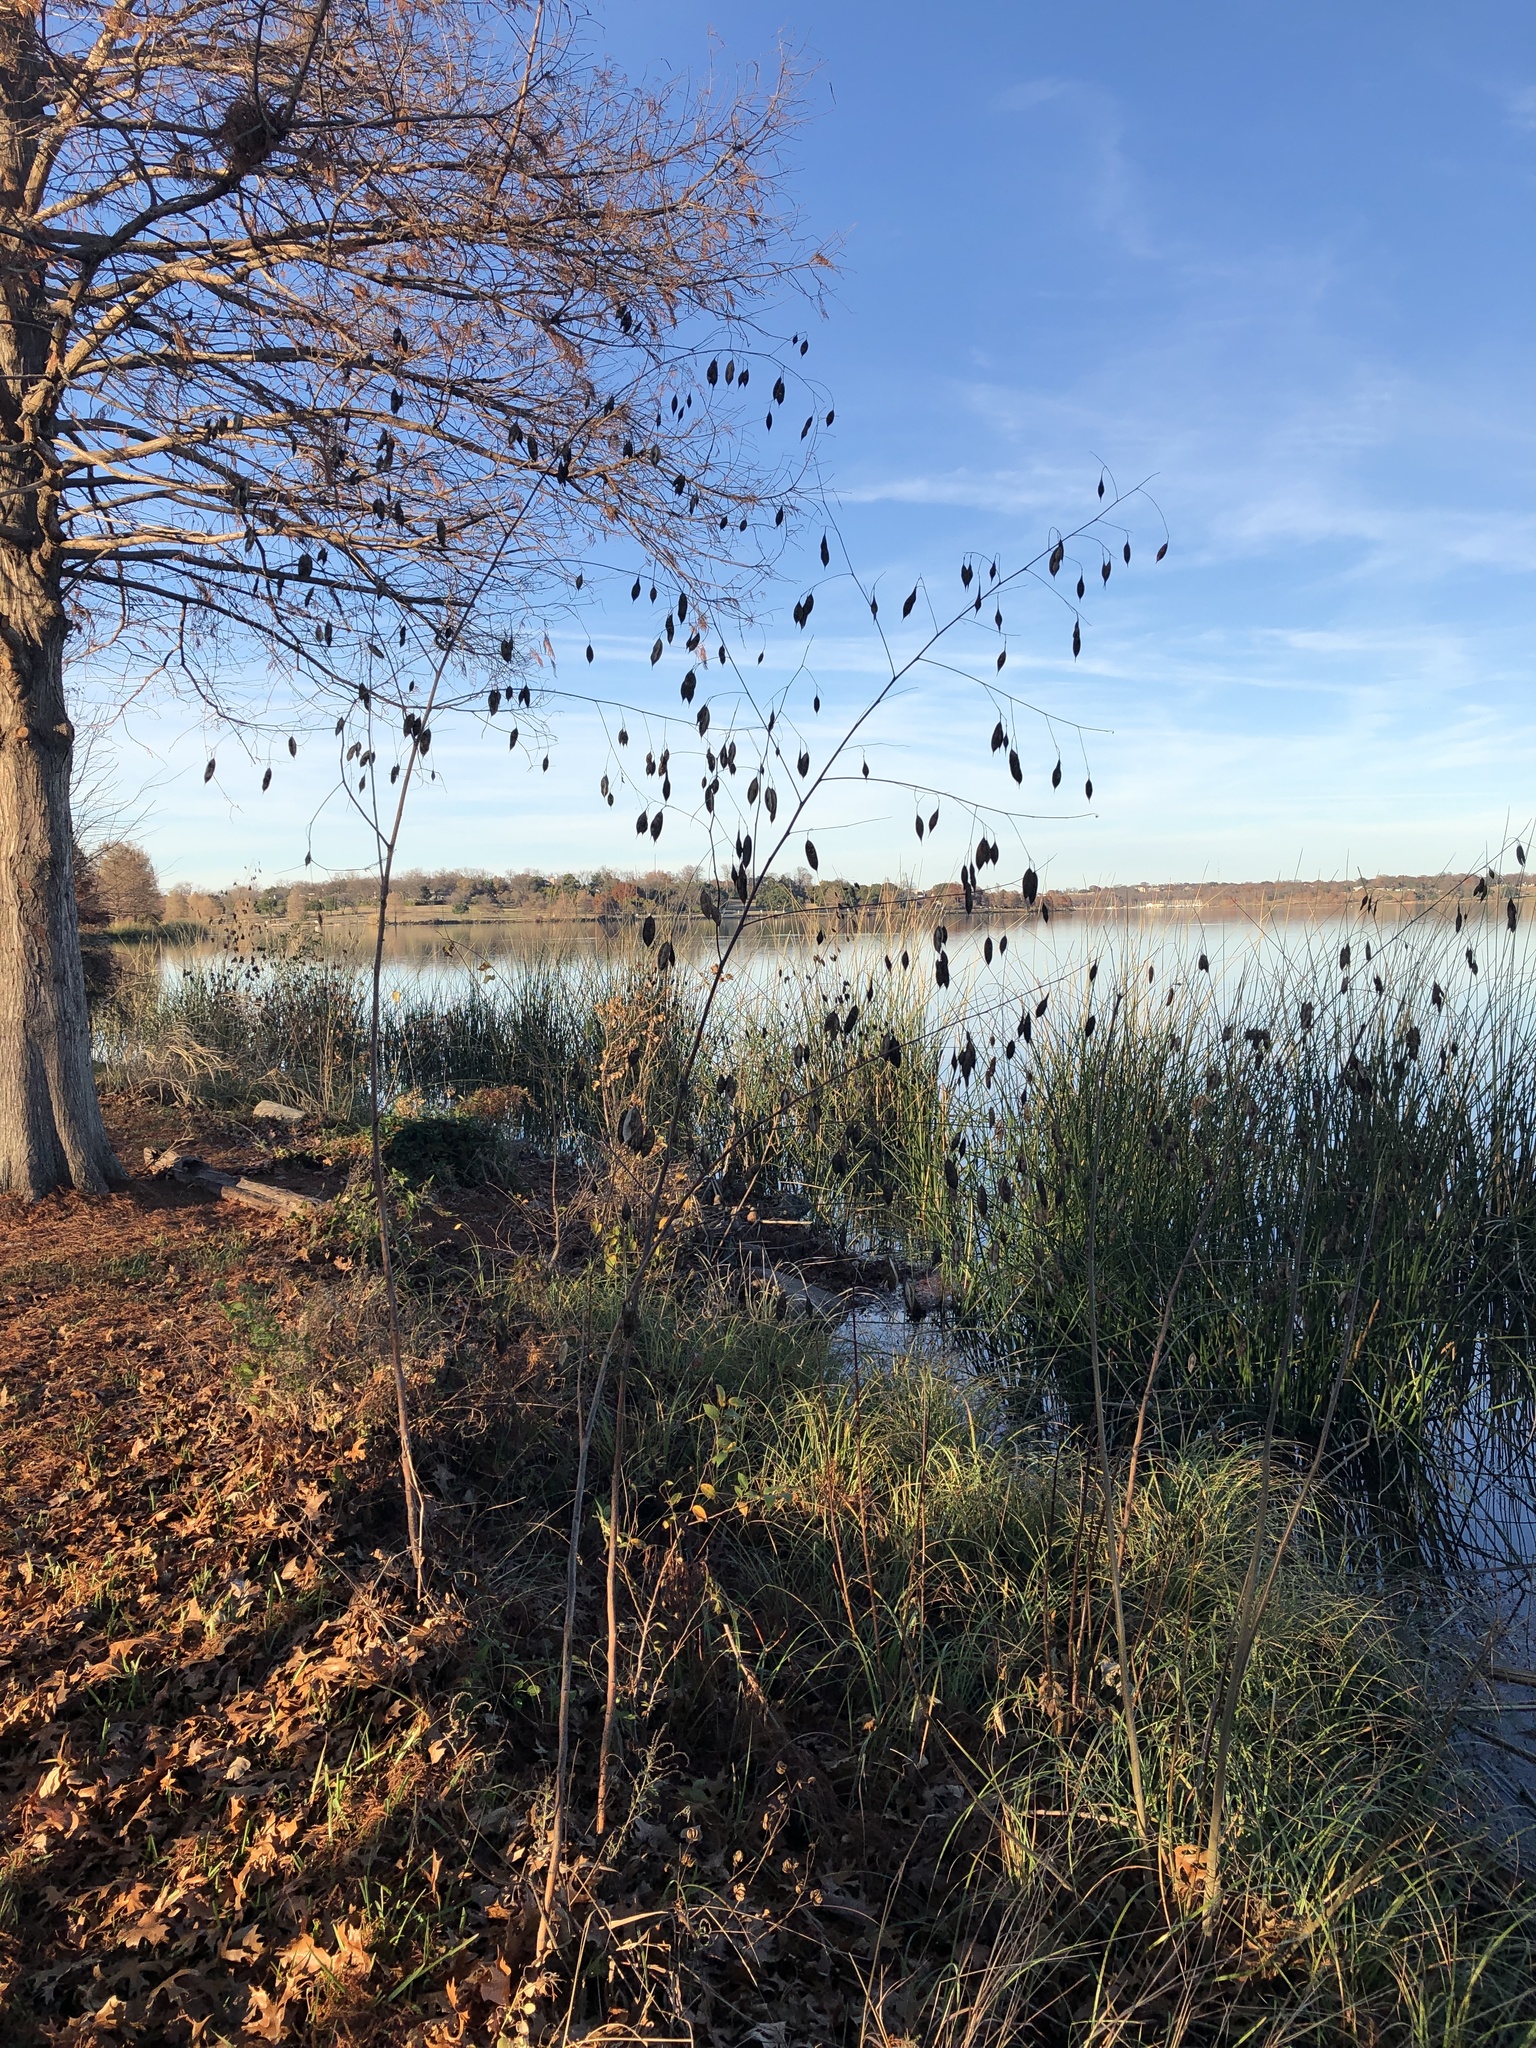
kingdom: Plantae
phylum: Tracheophyta
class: Magnoliopsida
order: Fabales
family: Fabaceae
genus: Sesbania
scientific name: Sesbania vesicaria
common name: Bagpod
